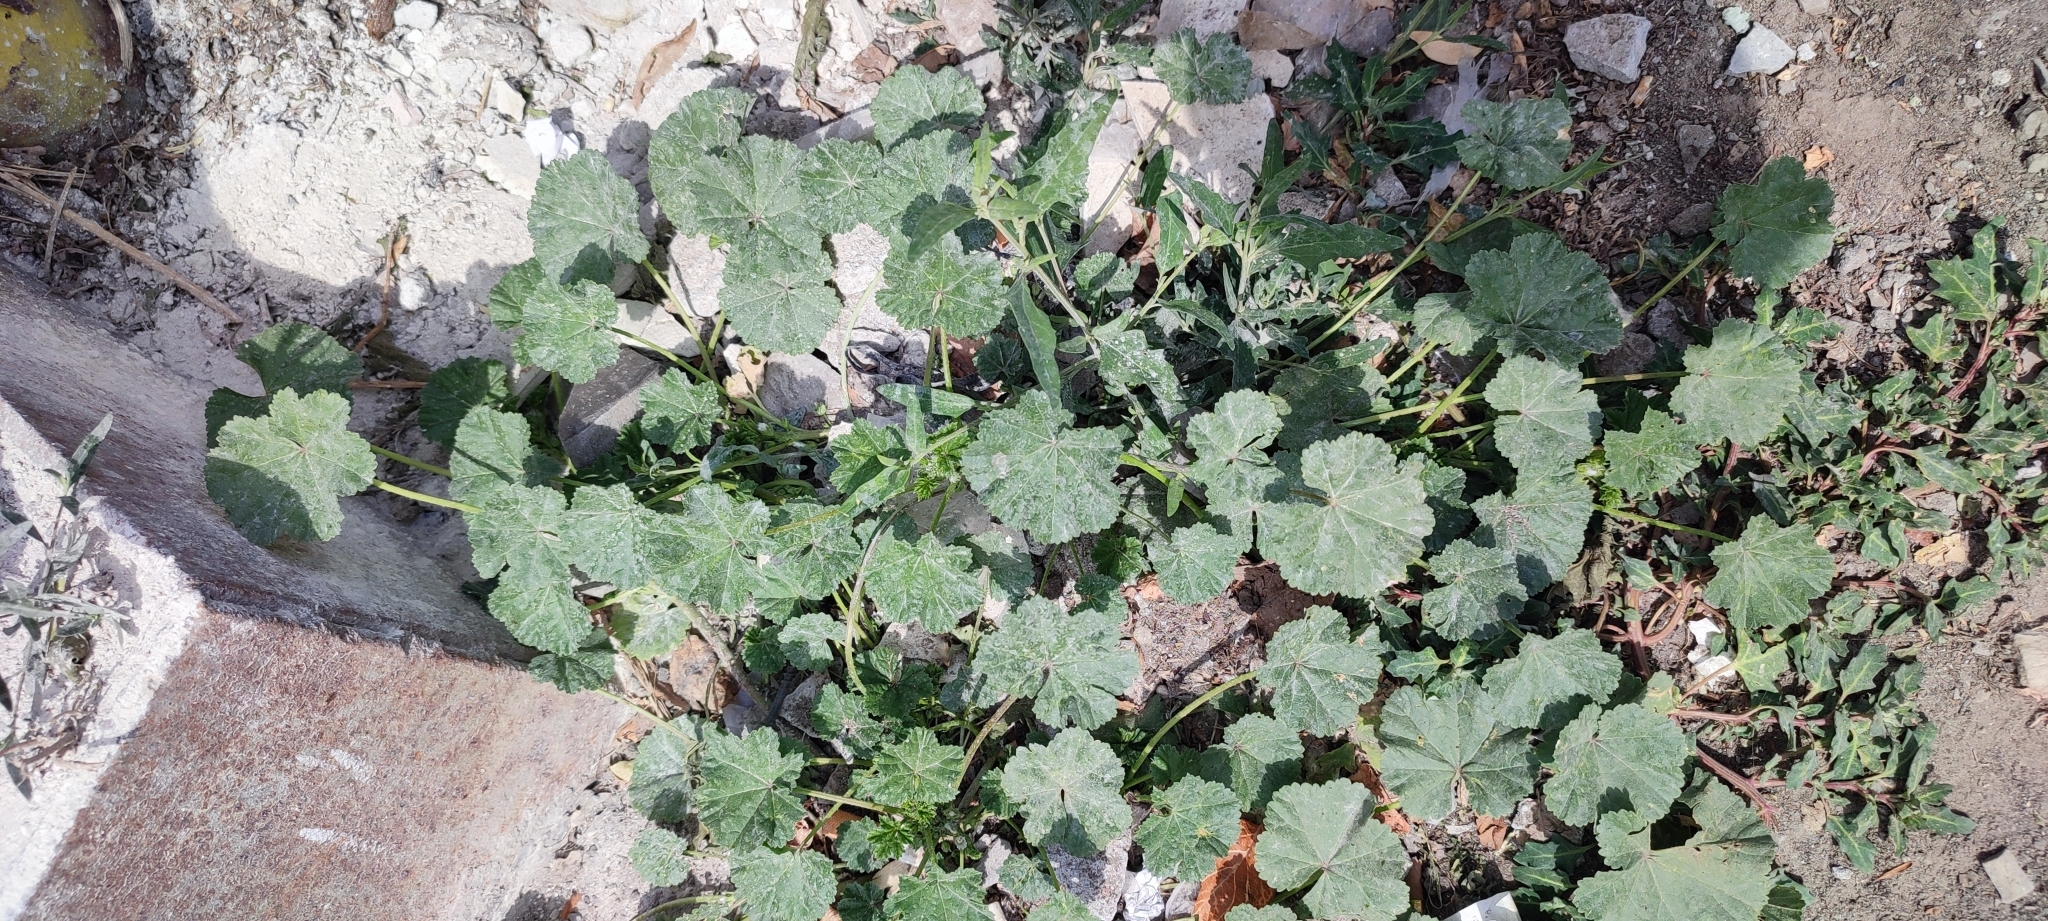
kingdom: Plantae
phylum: Tracheophyta
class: Magnoliopsida
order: Malvales
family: Malvaceae
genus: Malva
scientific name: Malva pusilla
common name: Small mallow
